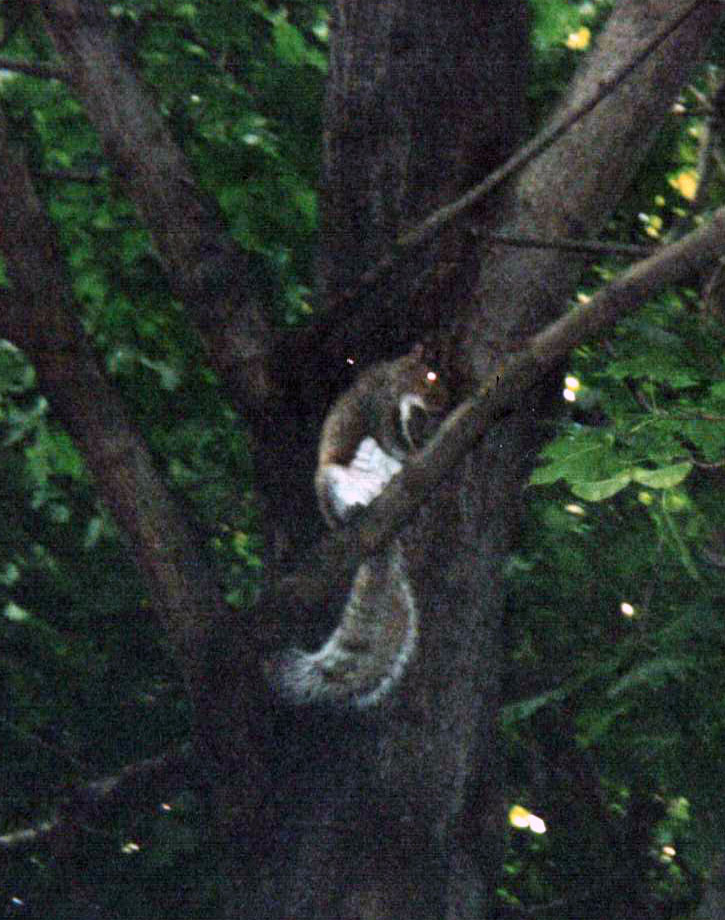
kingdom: Animalia
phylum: Chordata
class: Mammalia
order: Rodentia
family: Sciuridae
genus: Sciurus
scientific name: Sciurus carolinensis
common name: Eastern gray squirrel
